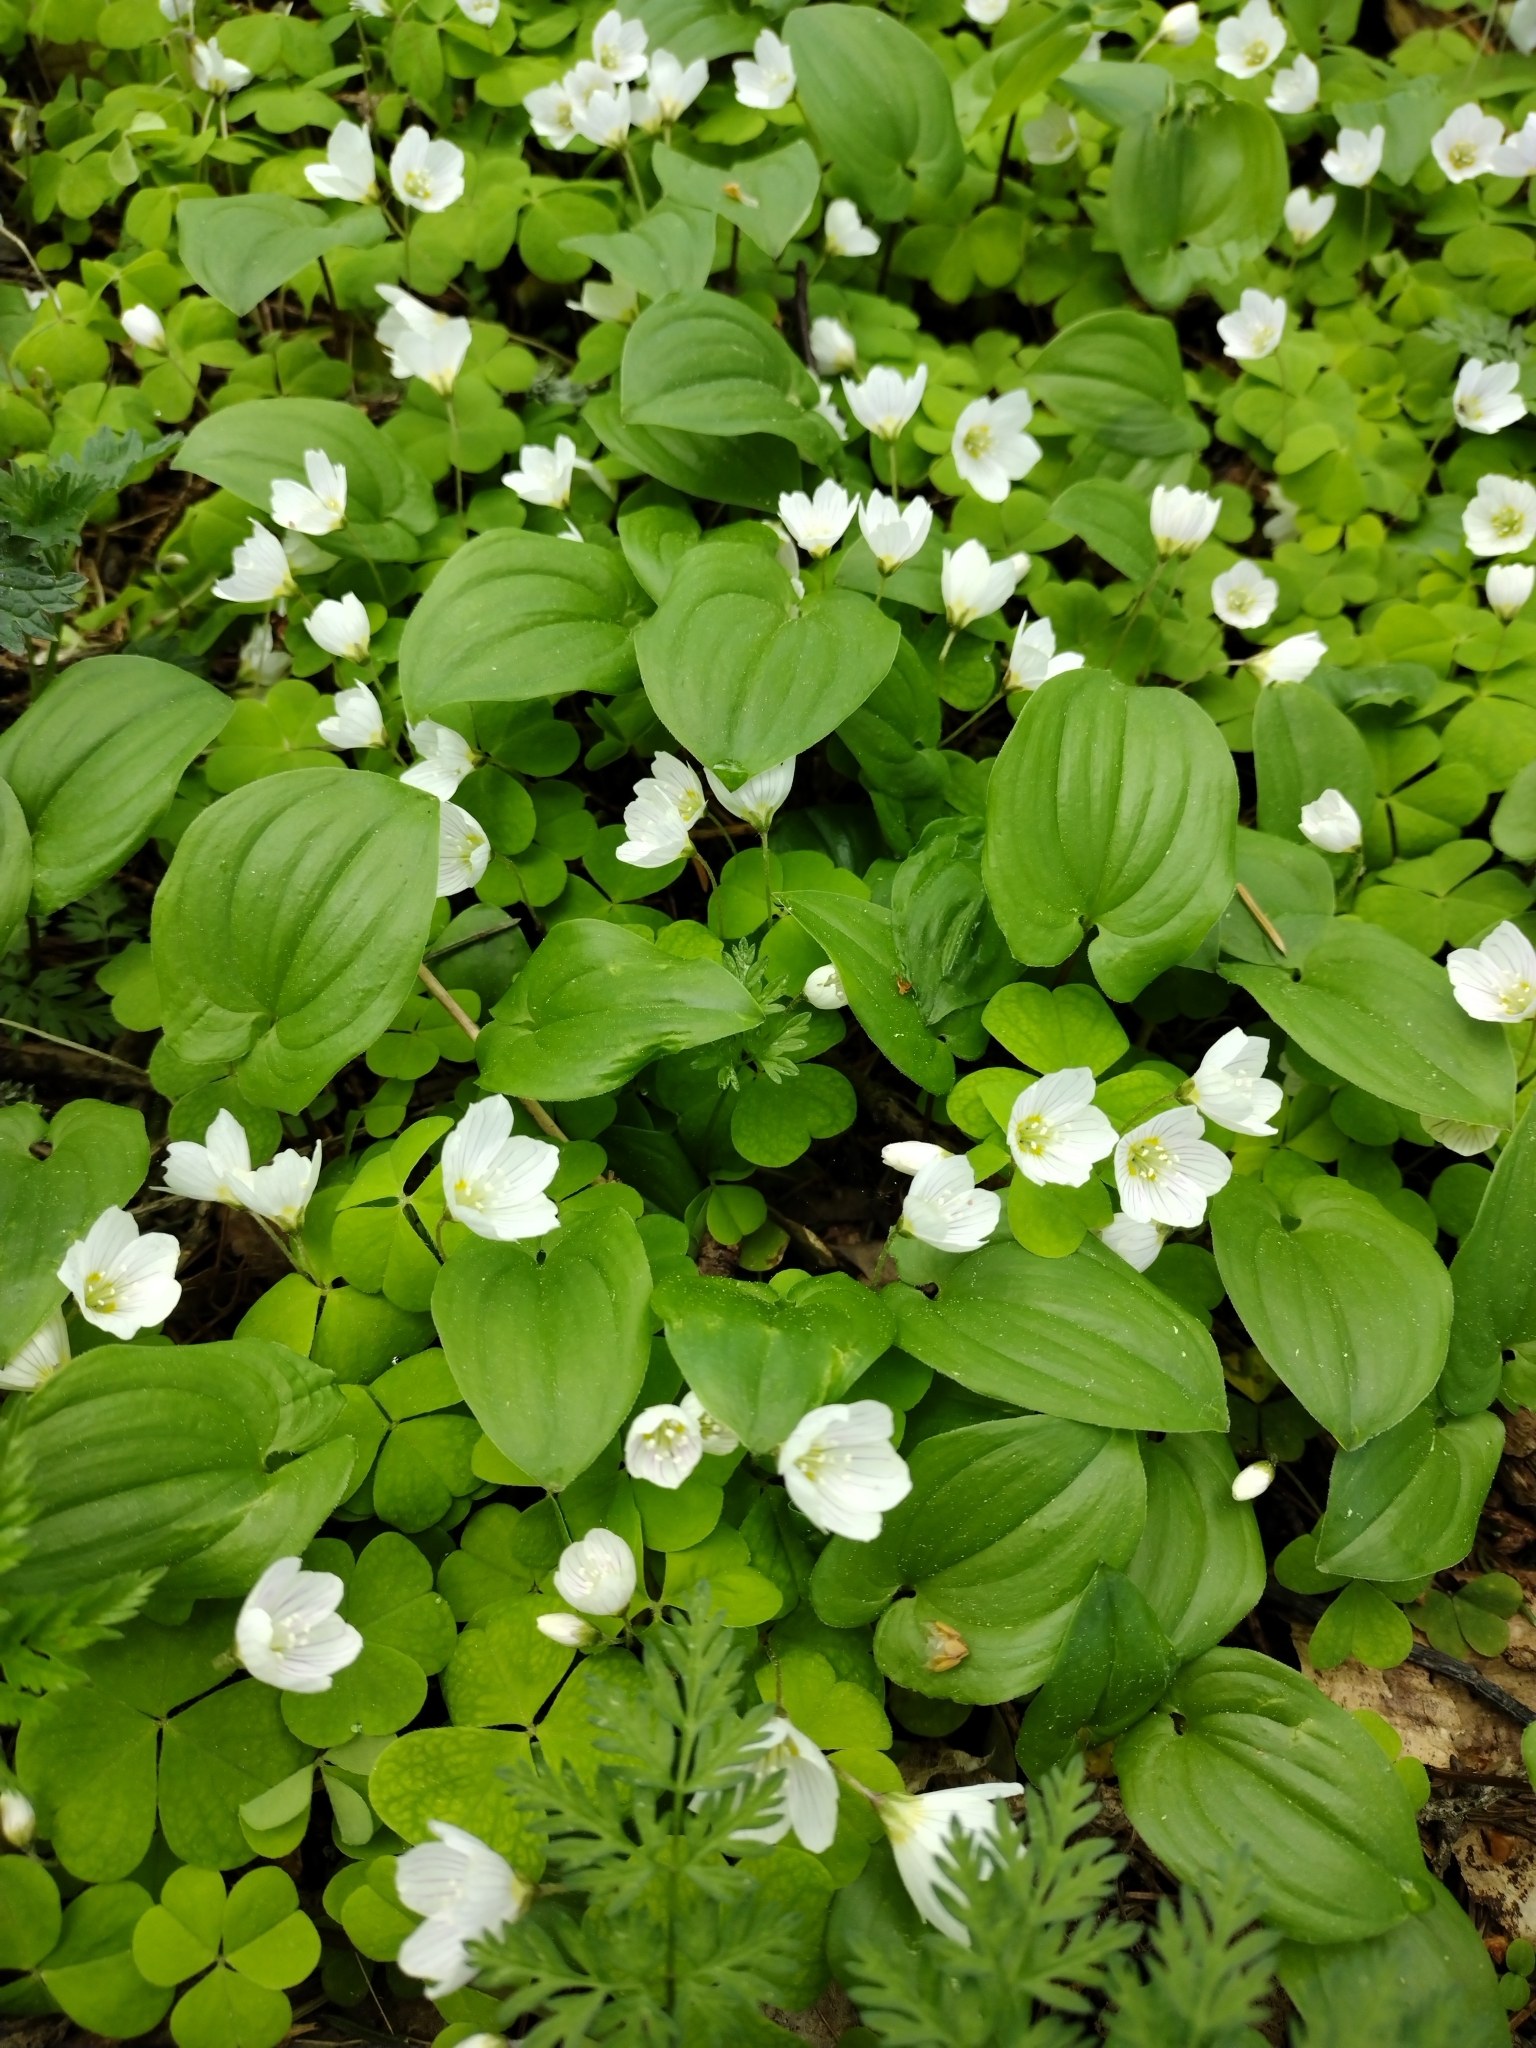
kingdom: Plantae
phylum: Tracheophyta
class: Magnoliopsida
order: Oxalidales
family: Oxalidaceae
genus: Oxalis
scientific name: Oxalis acetosella
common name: Wood-sorrel
